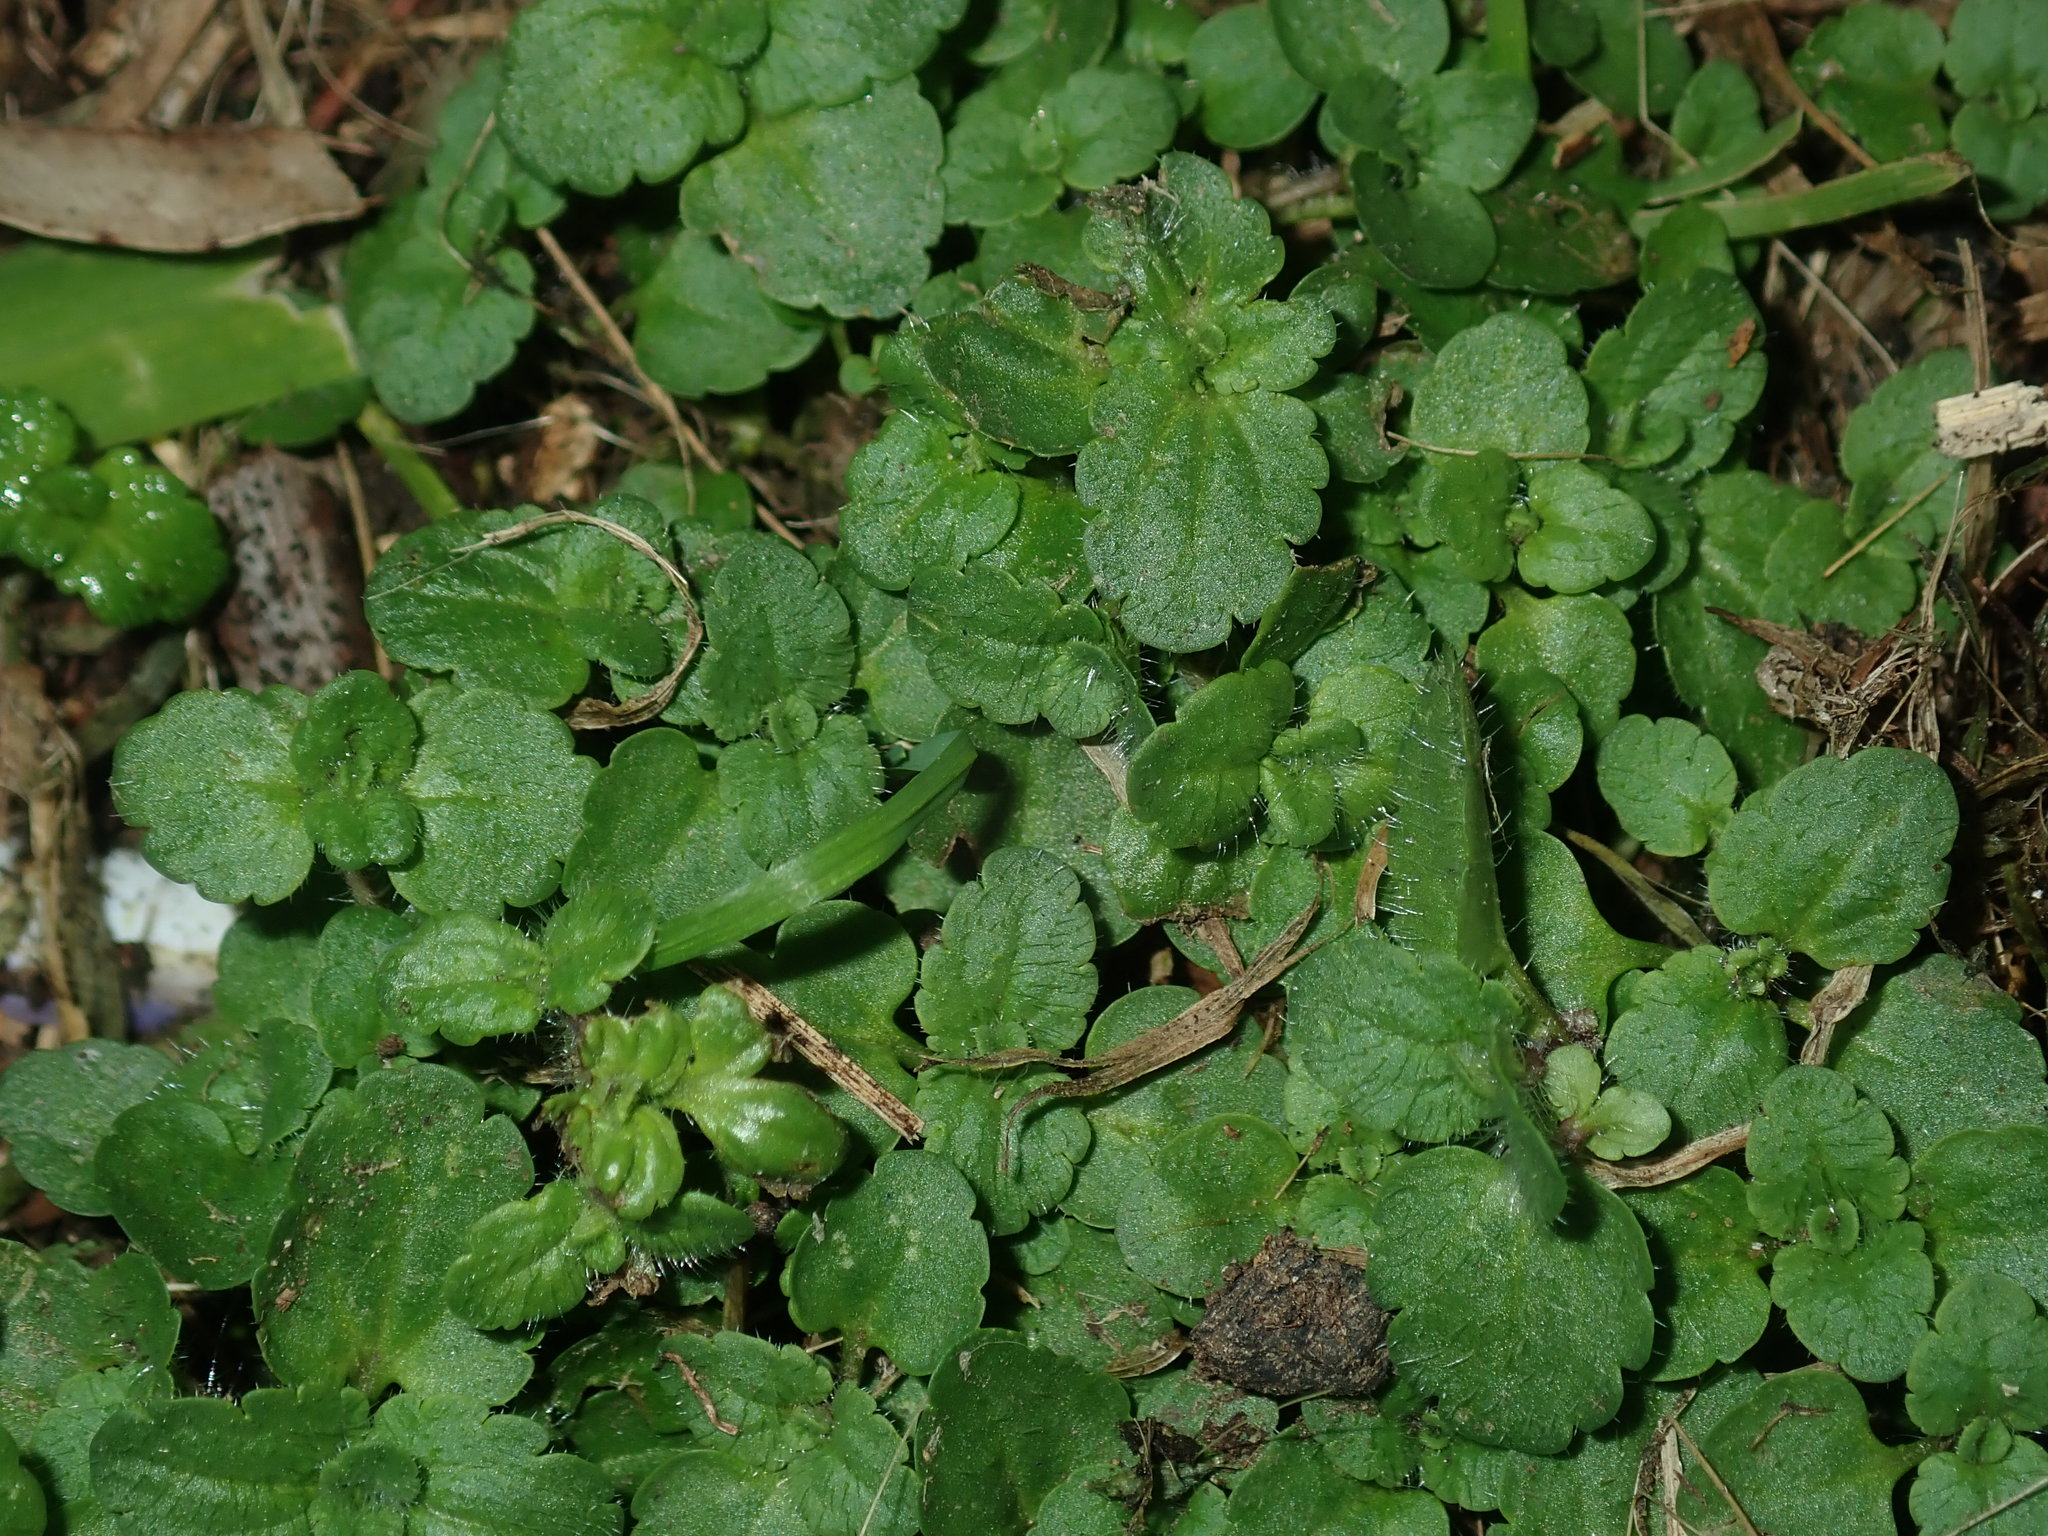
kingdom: Plantae
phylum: Tracheophyta
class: Magnoliopsida
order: Lamiales
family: Plantaginaceae
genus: Veronica
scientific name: Veronica arvensis
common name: Corn speedwell
